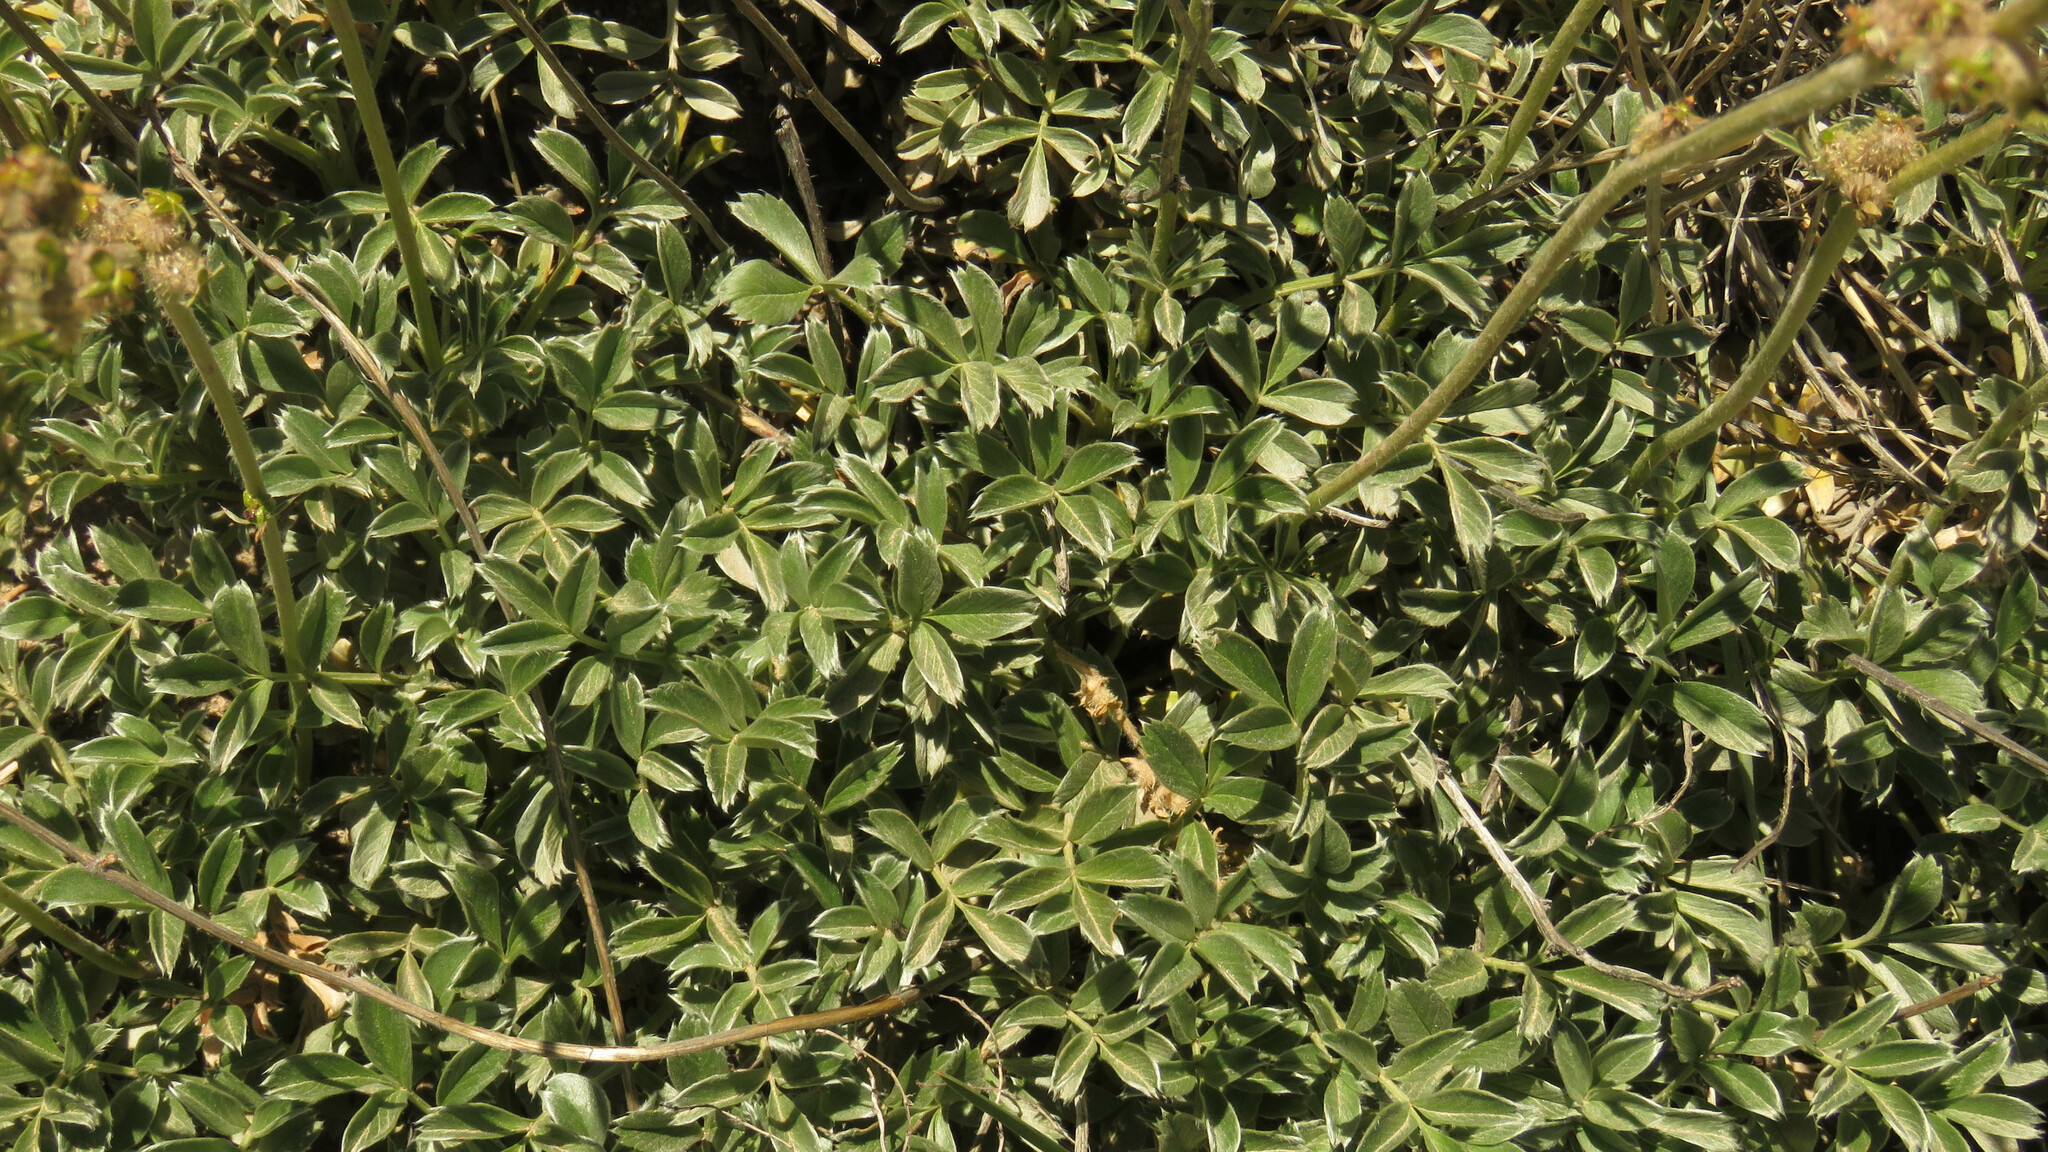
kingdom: Plantae
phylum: Tracheophyta
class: Magnoliopsida
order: Rosales
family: Rosaceae
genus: Acaena
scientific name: Acaena splendens
